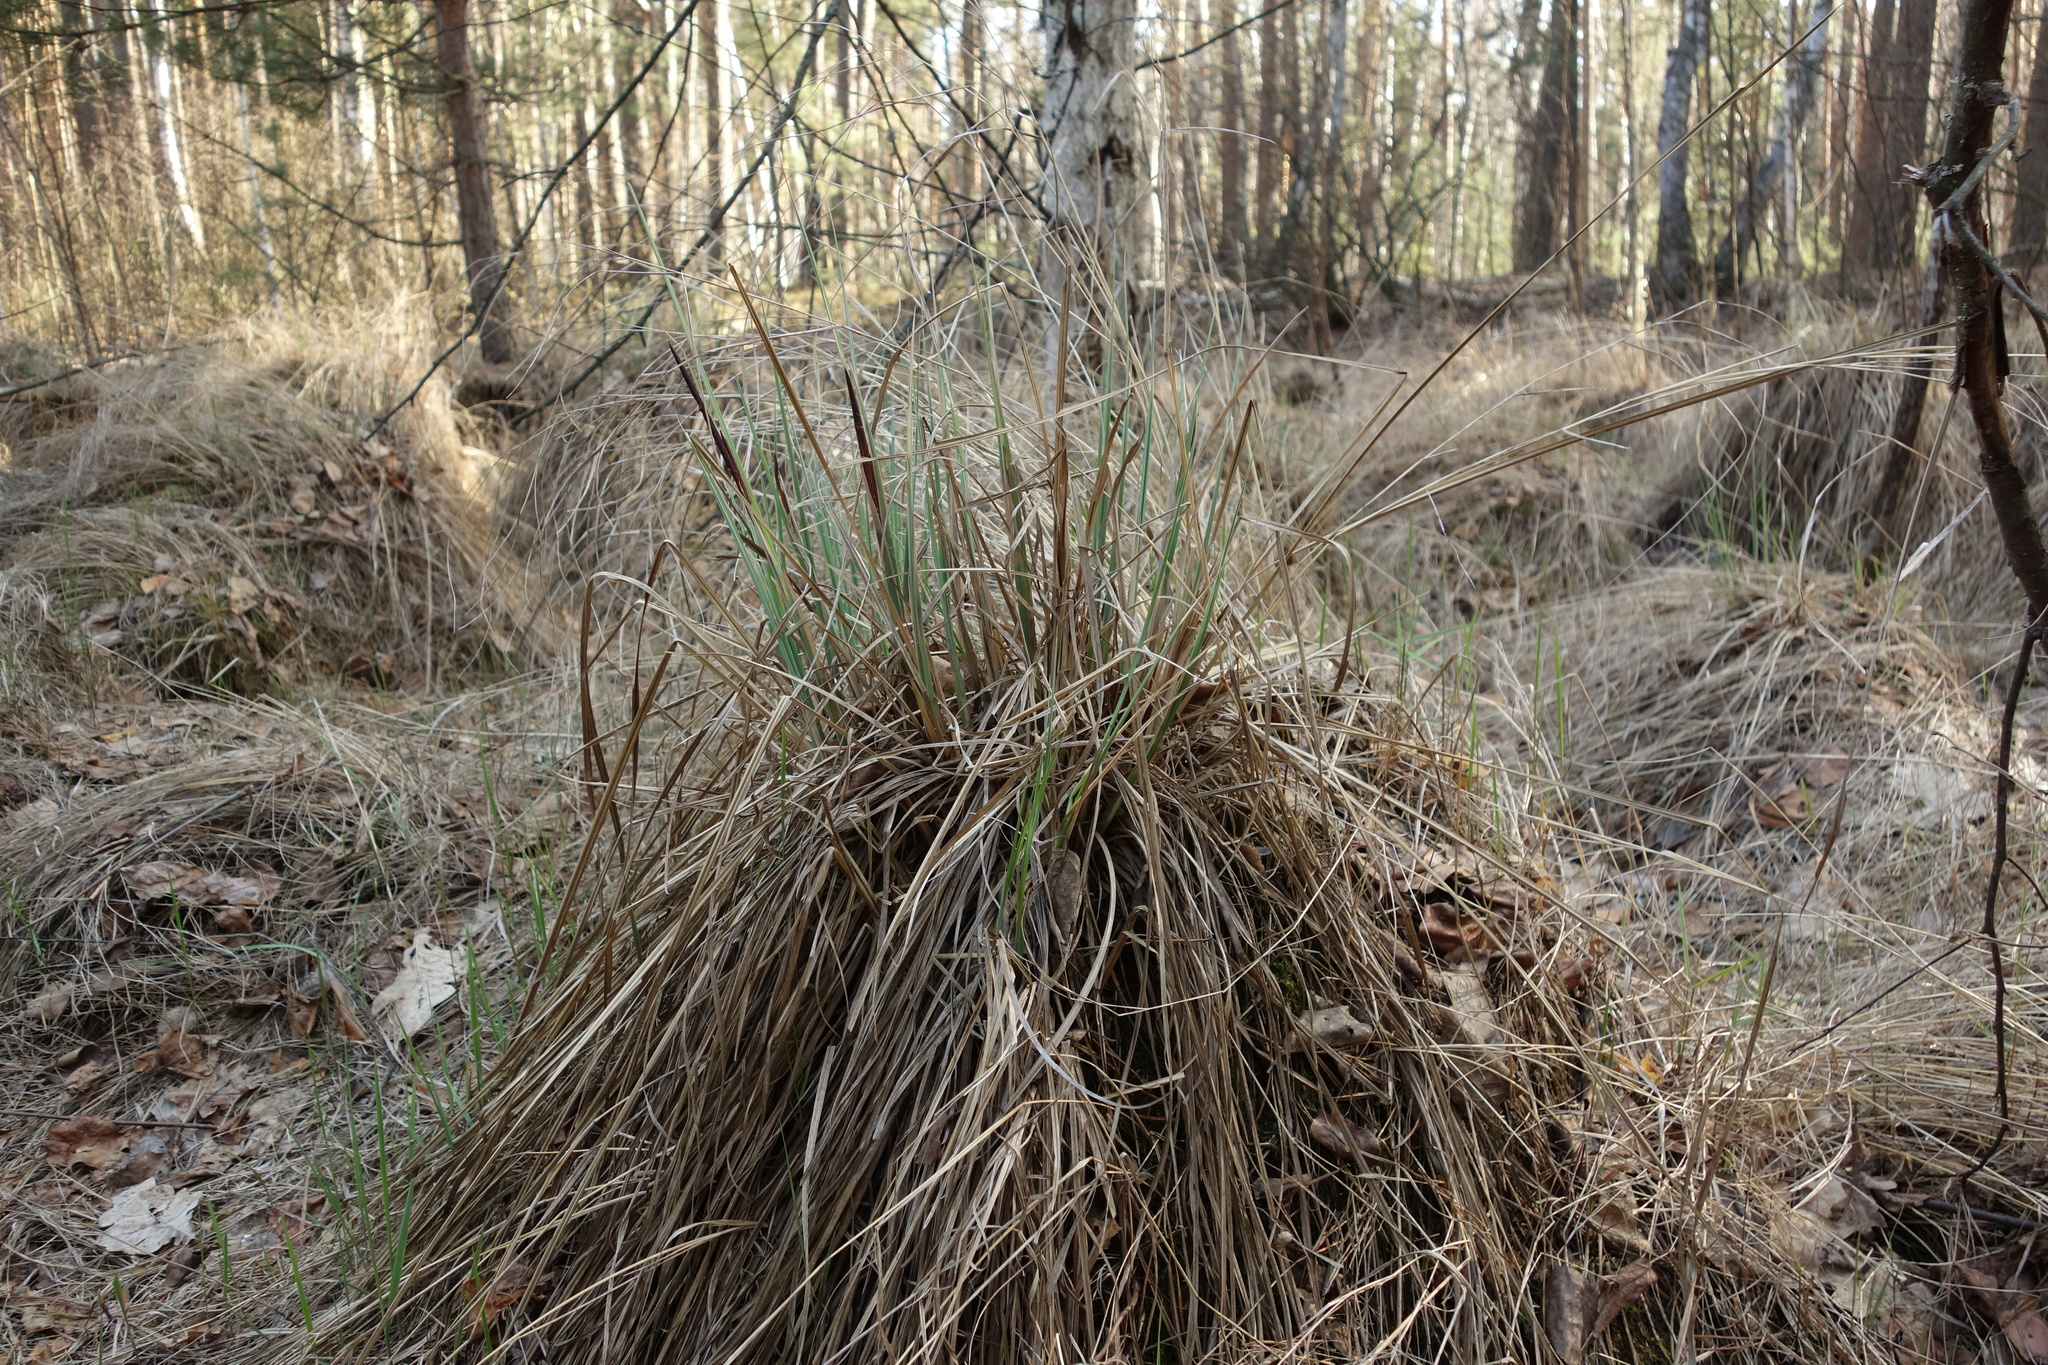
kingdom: Plantae
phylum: Tracheophyta
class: Liliopsida
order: Poales
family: Cyperaceae
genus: Carex
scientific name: Carex elata
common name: Tufted sedge
